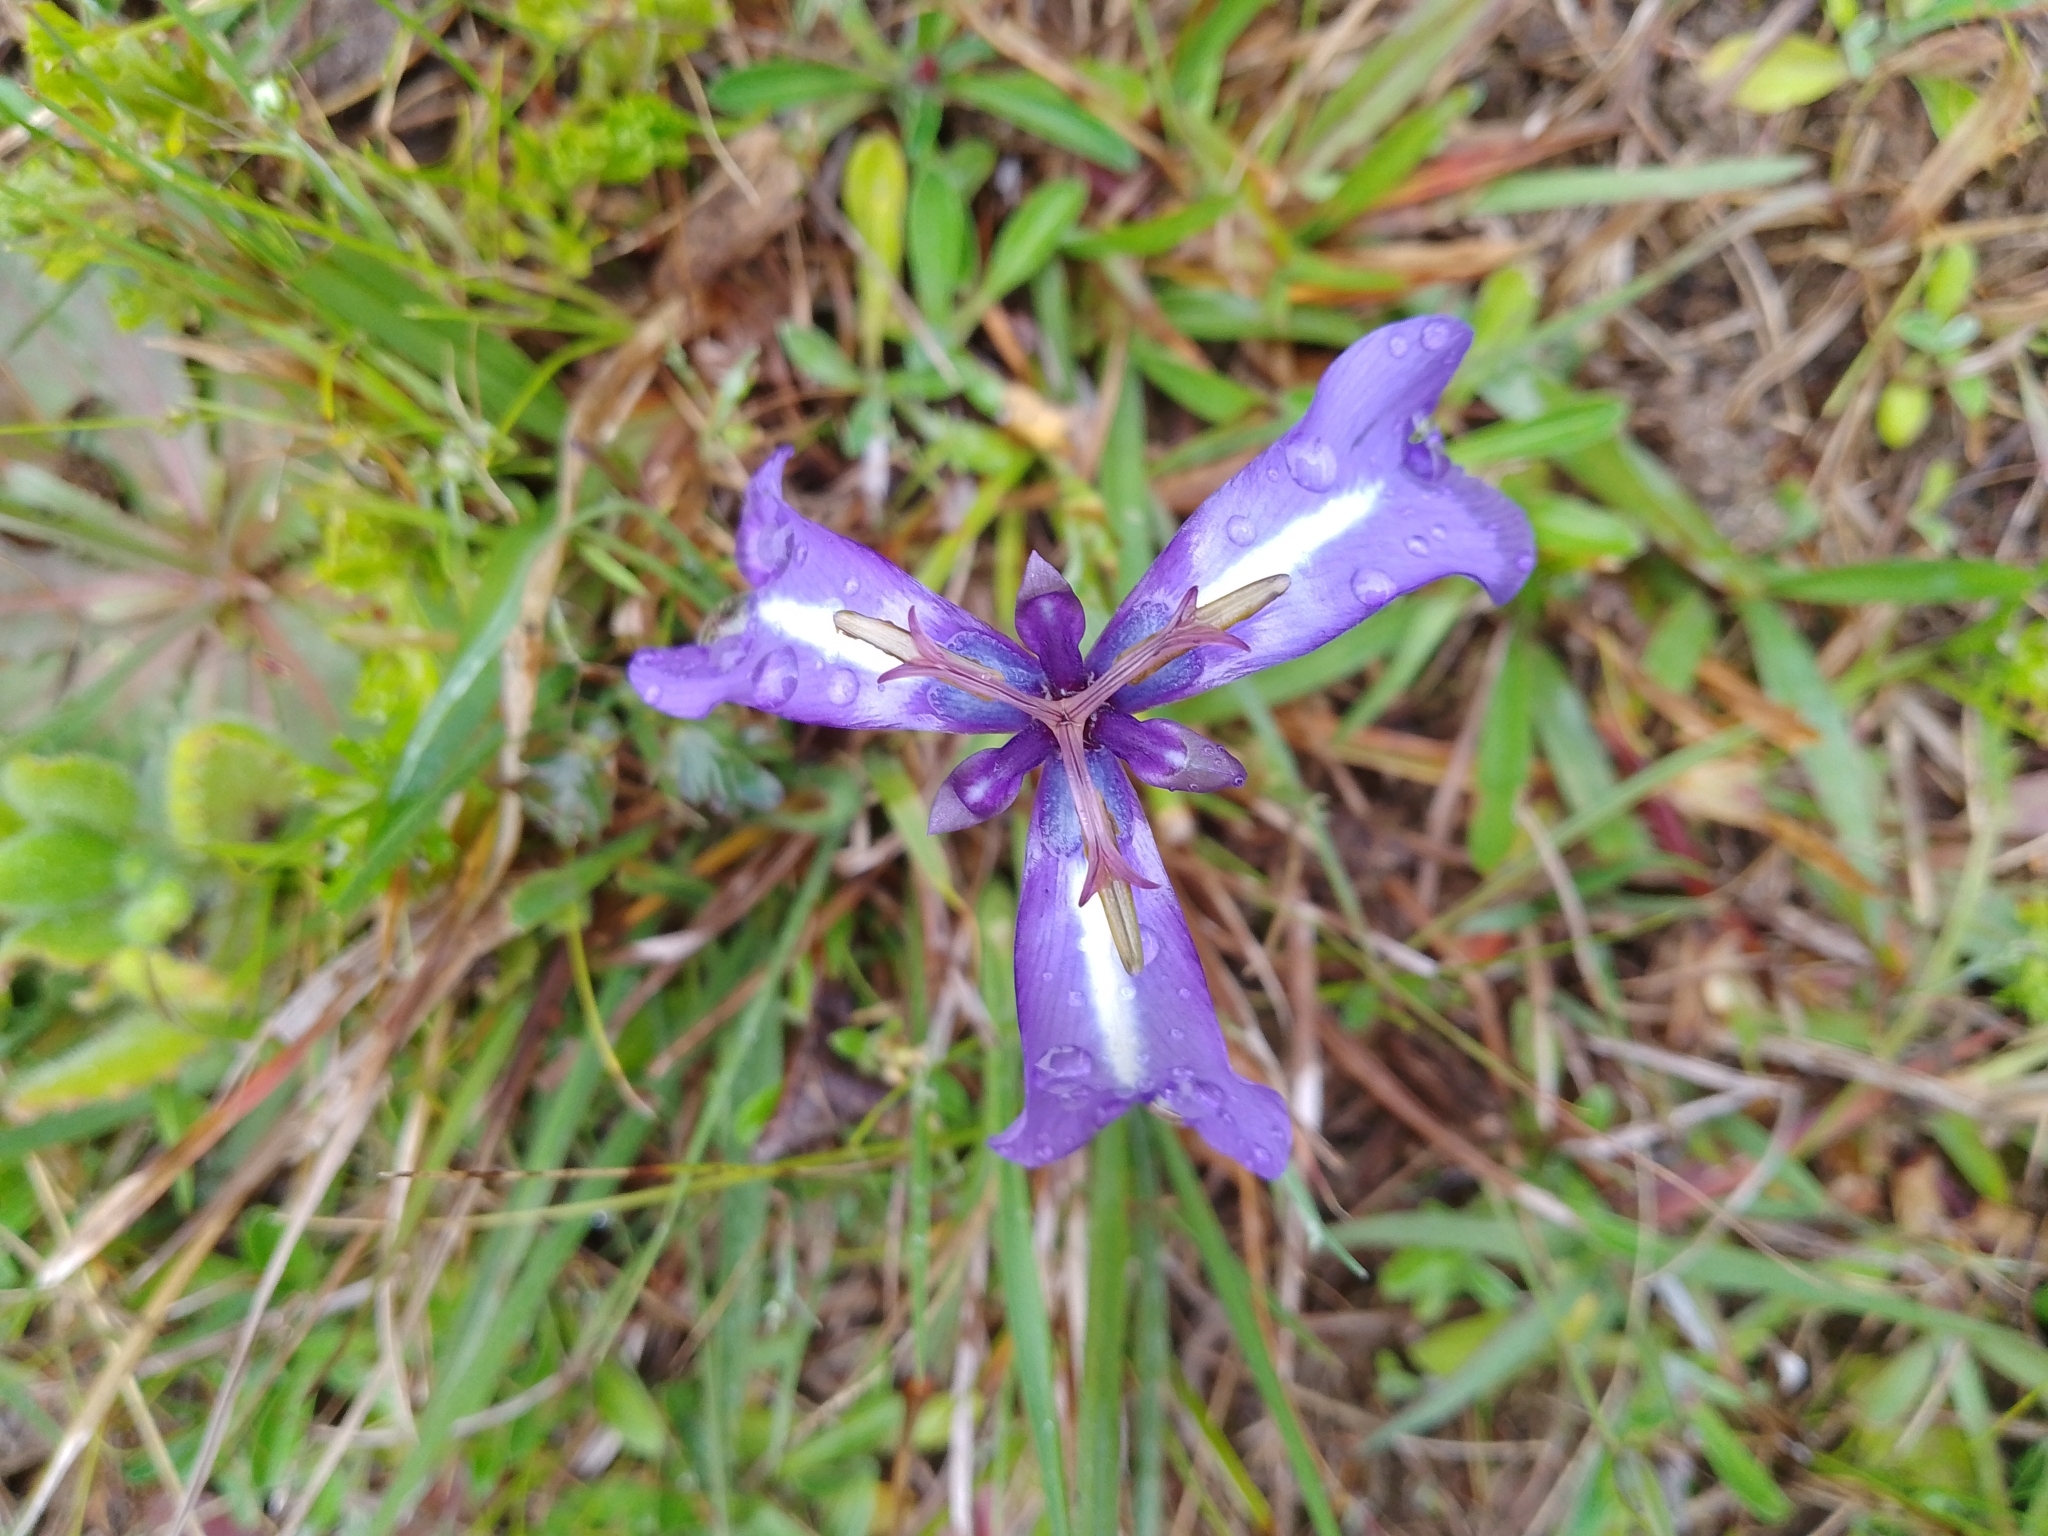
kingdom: Plantae
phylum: Tracheophyta
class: Liliopsida
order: Asparagales
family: Iridaceae
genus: Herbertia
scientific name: Herbertia pulchella
